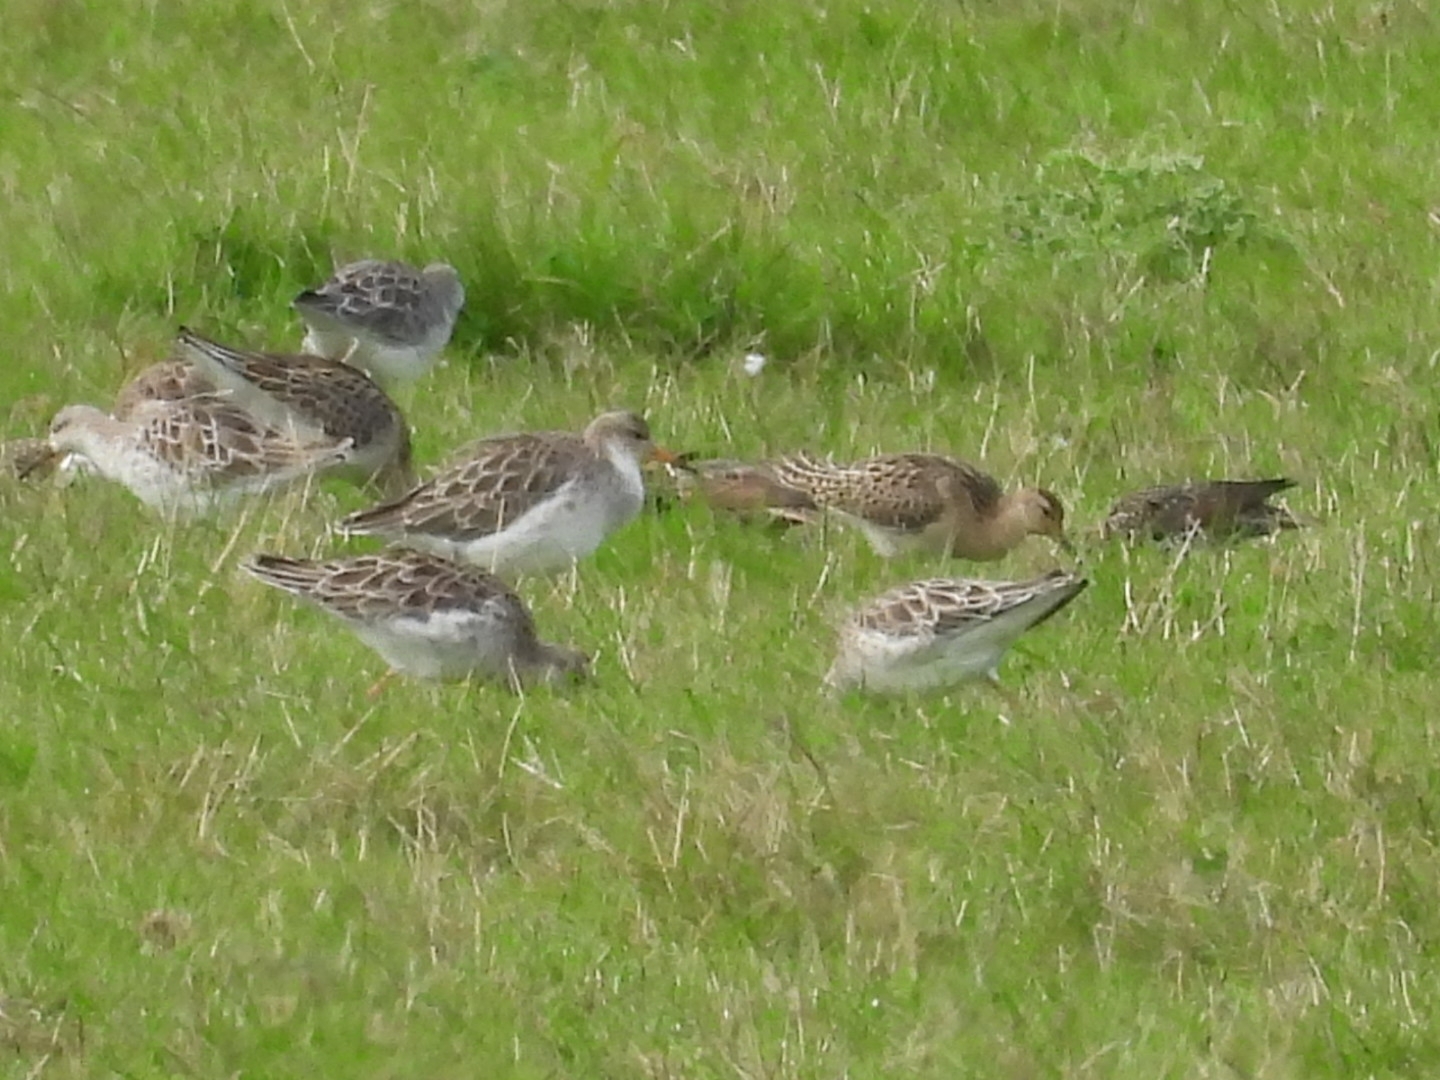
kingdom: Animalia
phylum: Chordata
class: Aves
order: Charadriiformes
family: Scolopacidae
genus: Calidris
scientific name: Calidris pugnax
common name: Ruff
